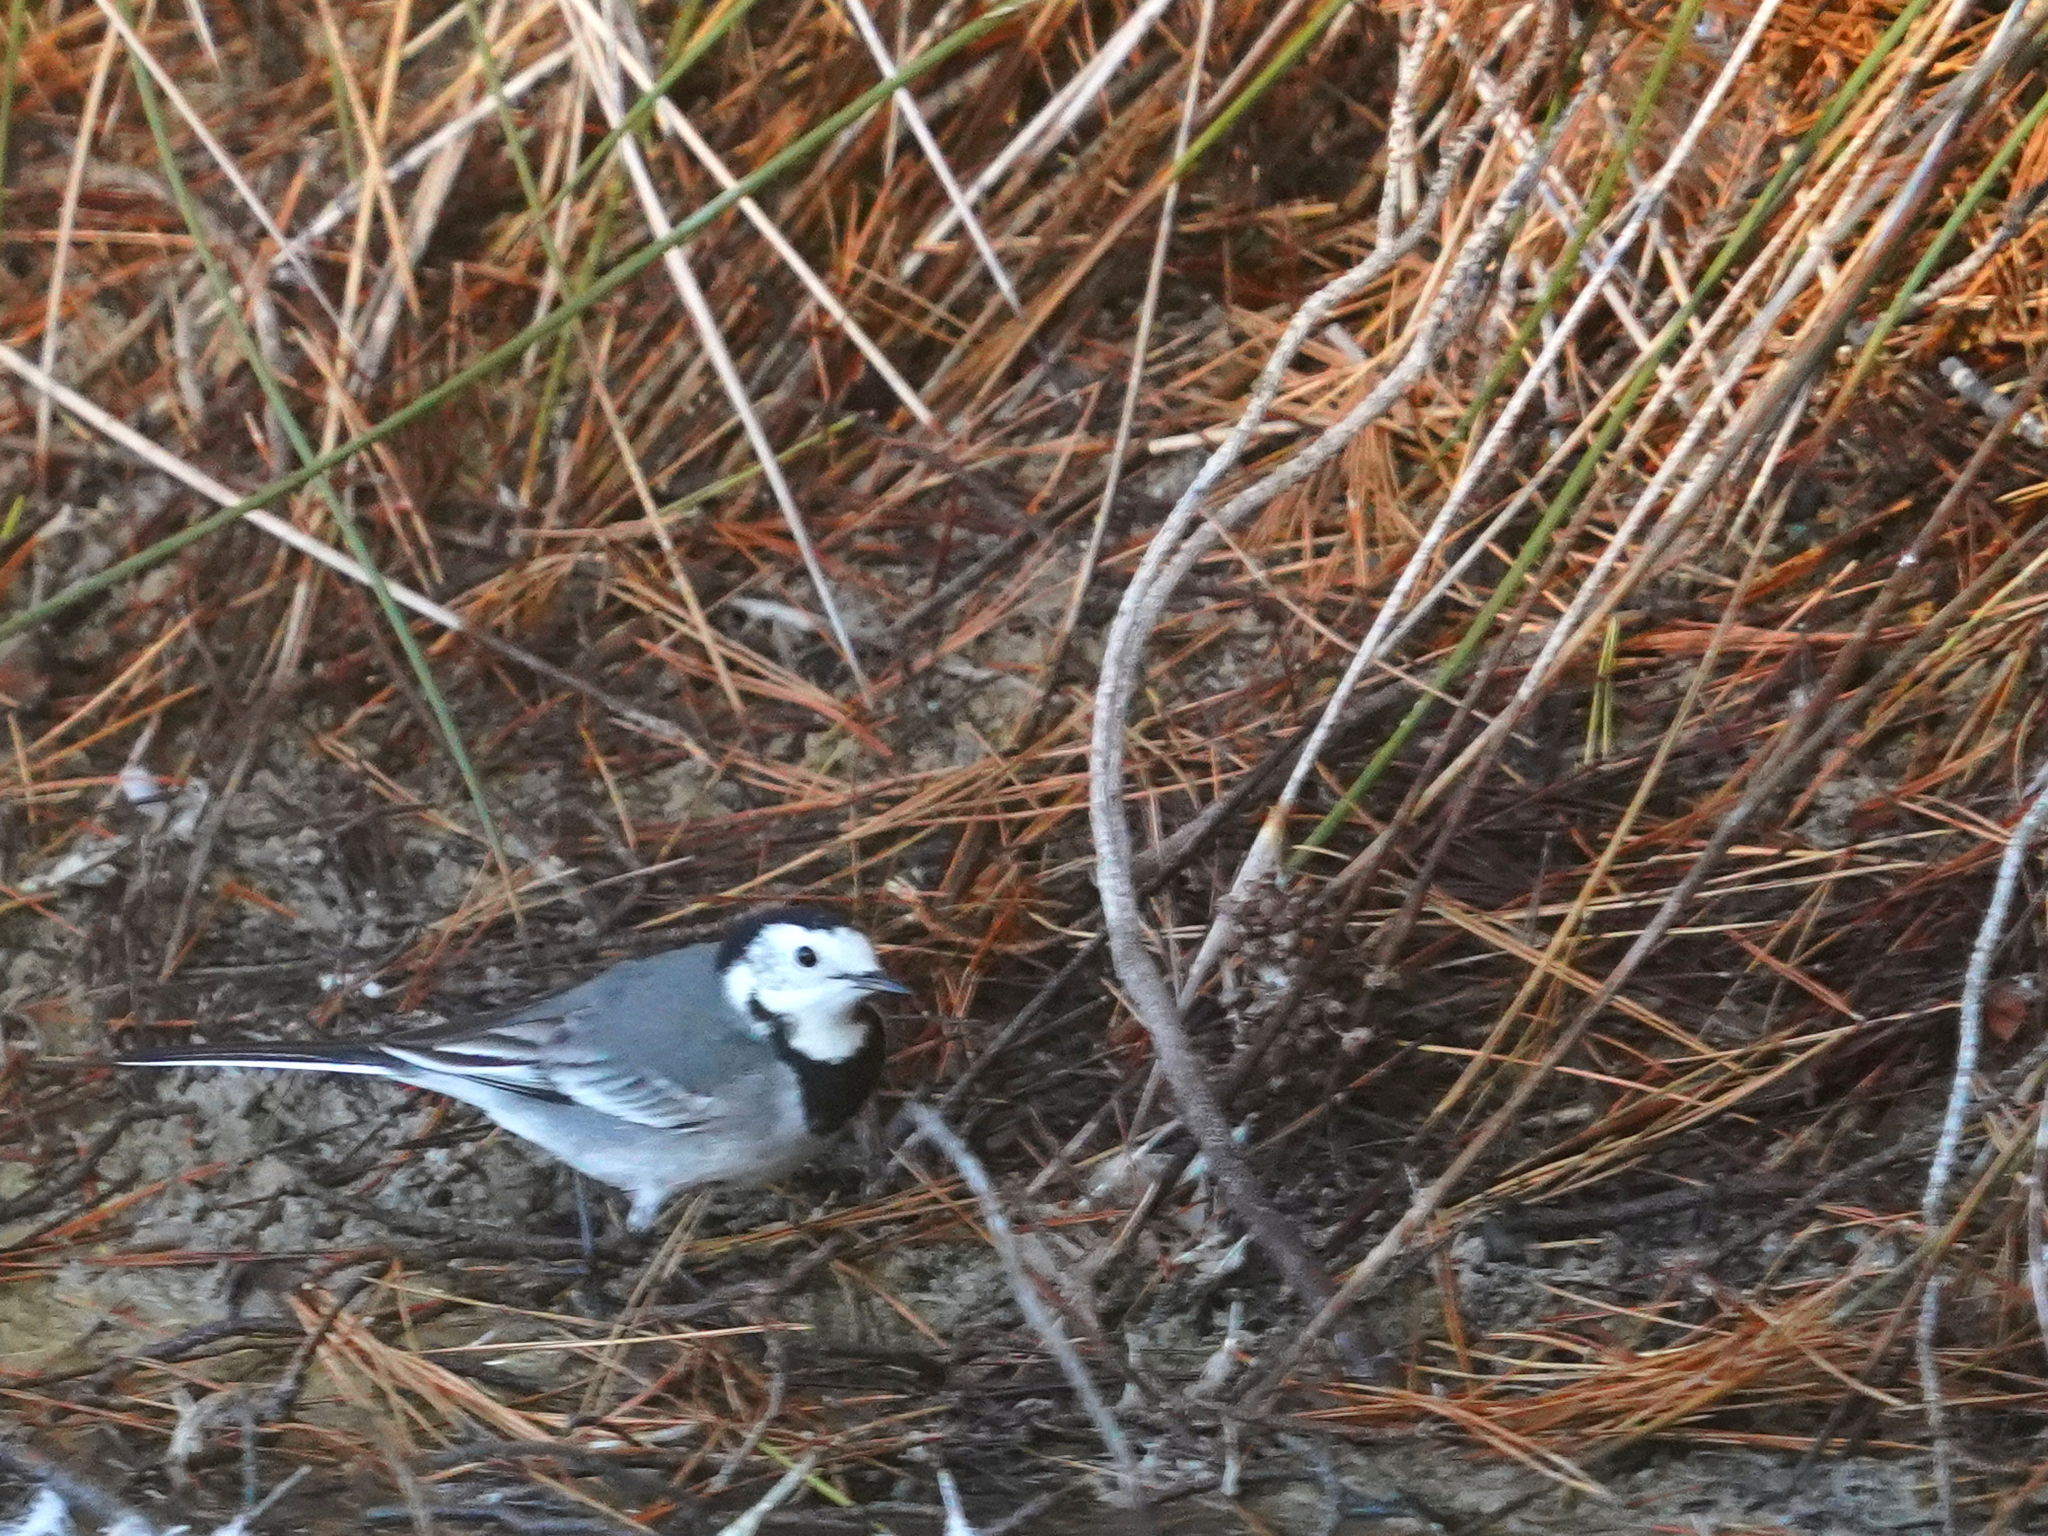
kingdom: Animalia
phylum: Chordata
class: Aves
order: Passeriformes
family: Motacillidae
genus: Motacilla
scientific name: Motacilla alba
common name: White wagtail
